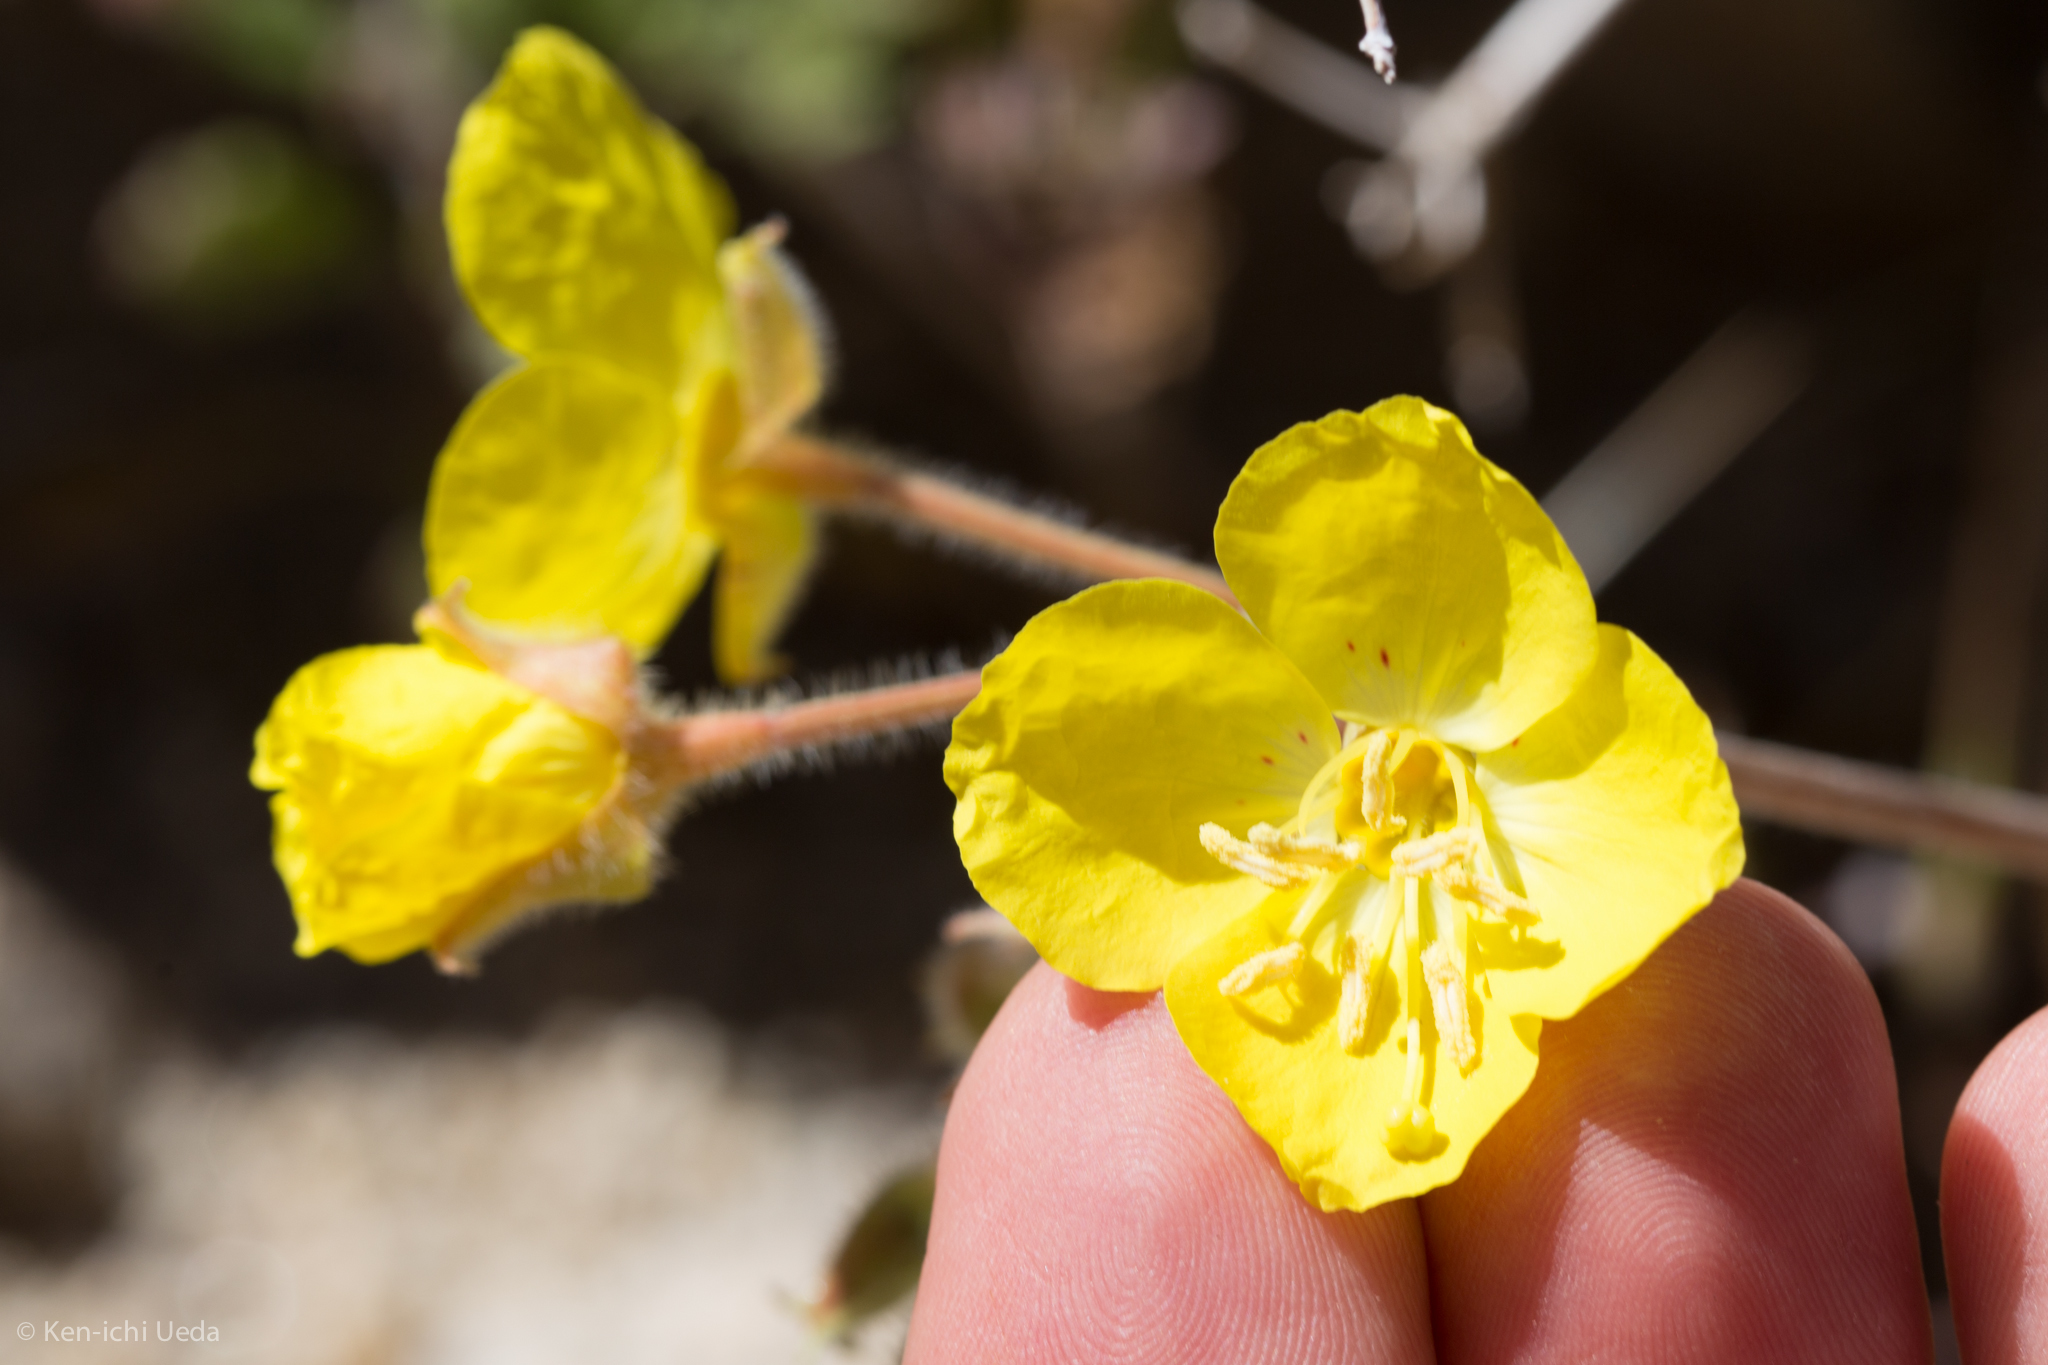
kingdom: Plantae
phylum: Tracheophyta
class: Magnoliopsida
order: Myrtales
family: Onagraceae
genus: Chylismia
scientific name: Chylismia brevipes
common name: Yellow cups
